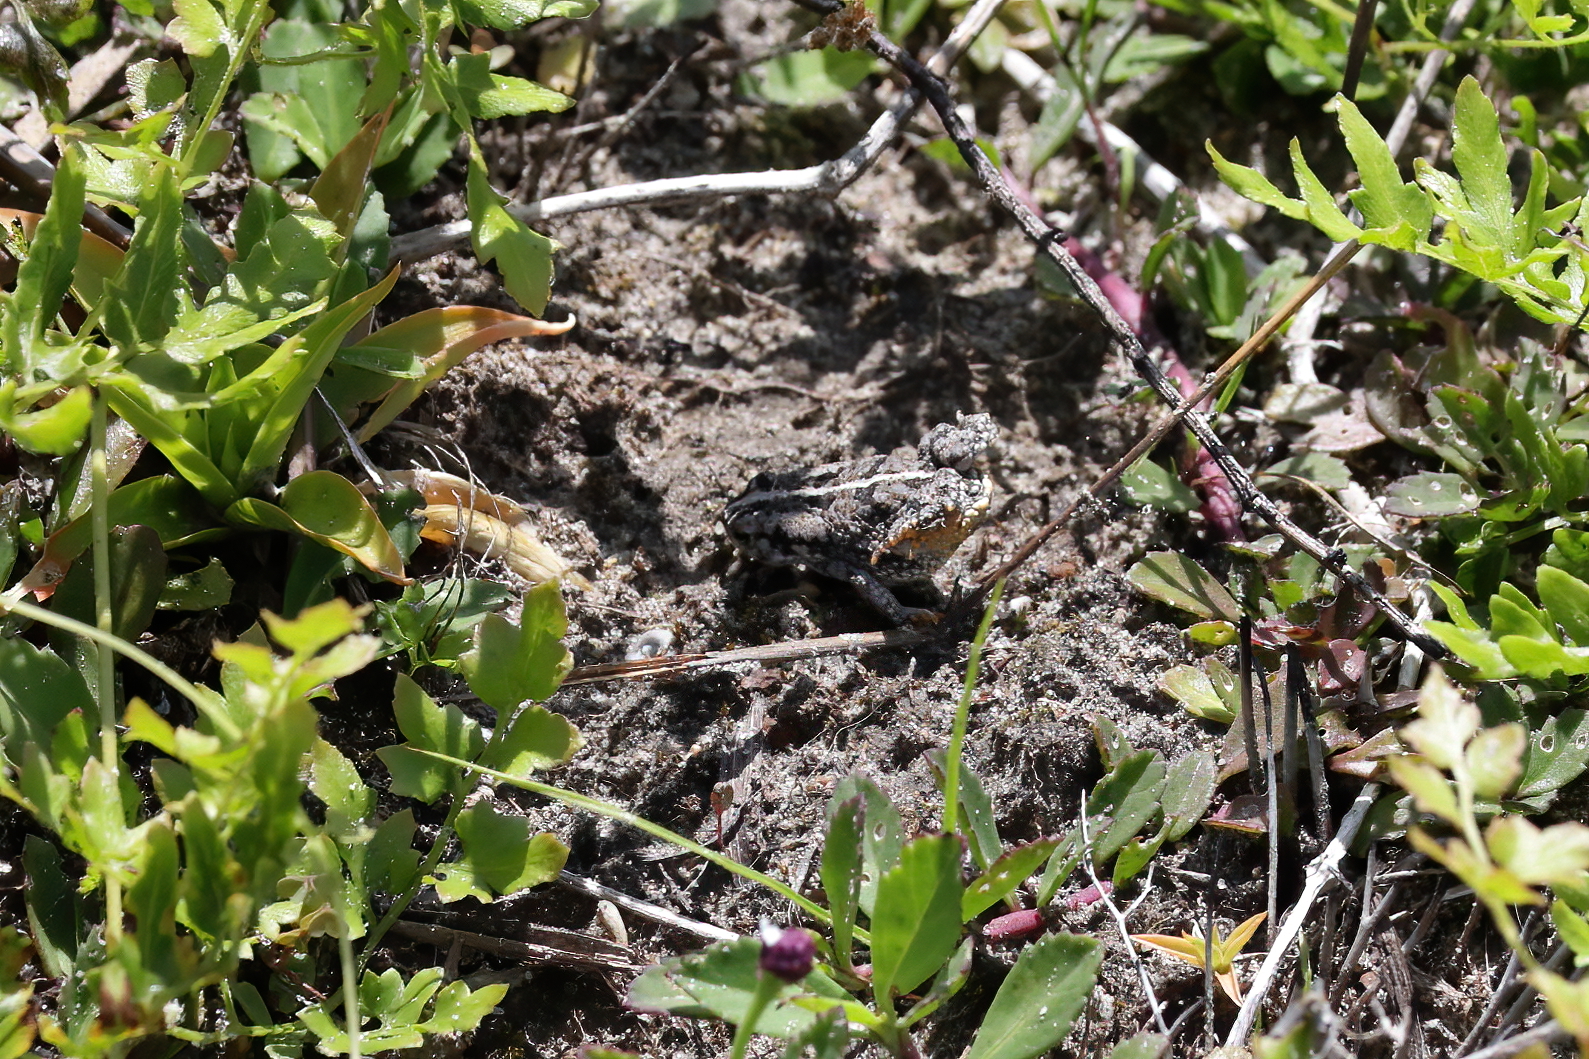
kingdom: Animalia
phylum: Chordata
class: Amphibia
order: Anura
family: Bufonidae
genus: Anaxyrus
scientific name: Anaxyrus quercicus
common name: Oak toad
